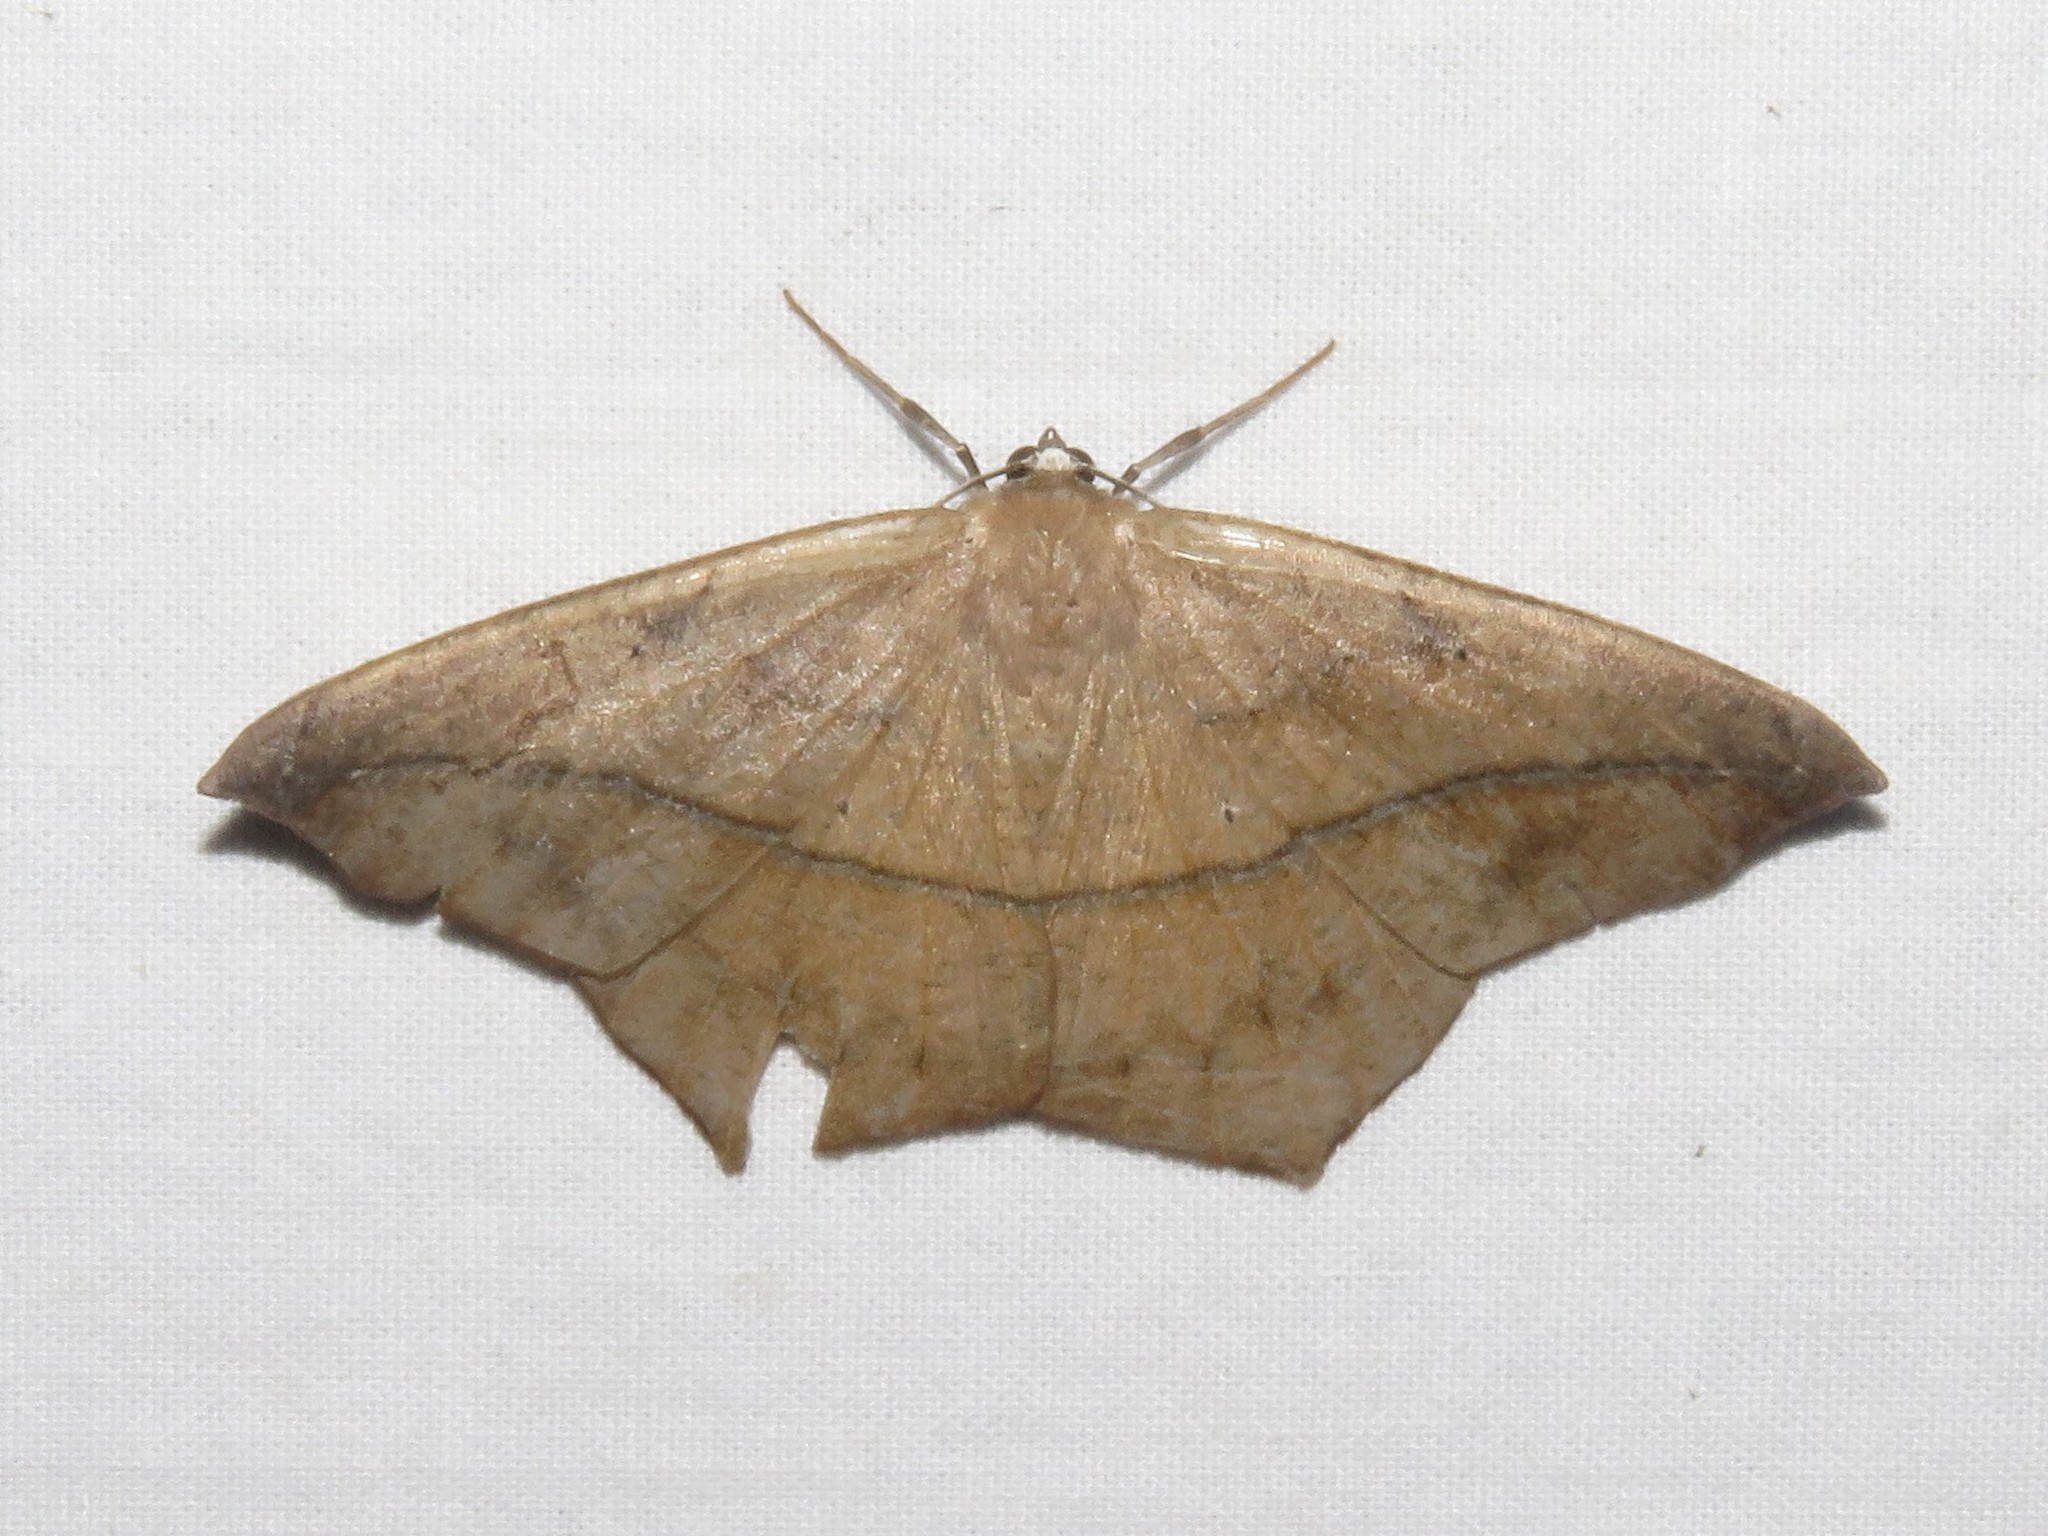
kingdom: Animalia
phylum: Arthropoda
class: Insecta
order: Lepidoptera
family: Geometridae
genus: Prochoerodes
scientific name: Prochoerodes lineola
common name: Large maple spanworm
